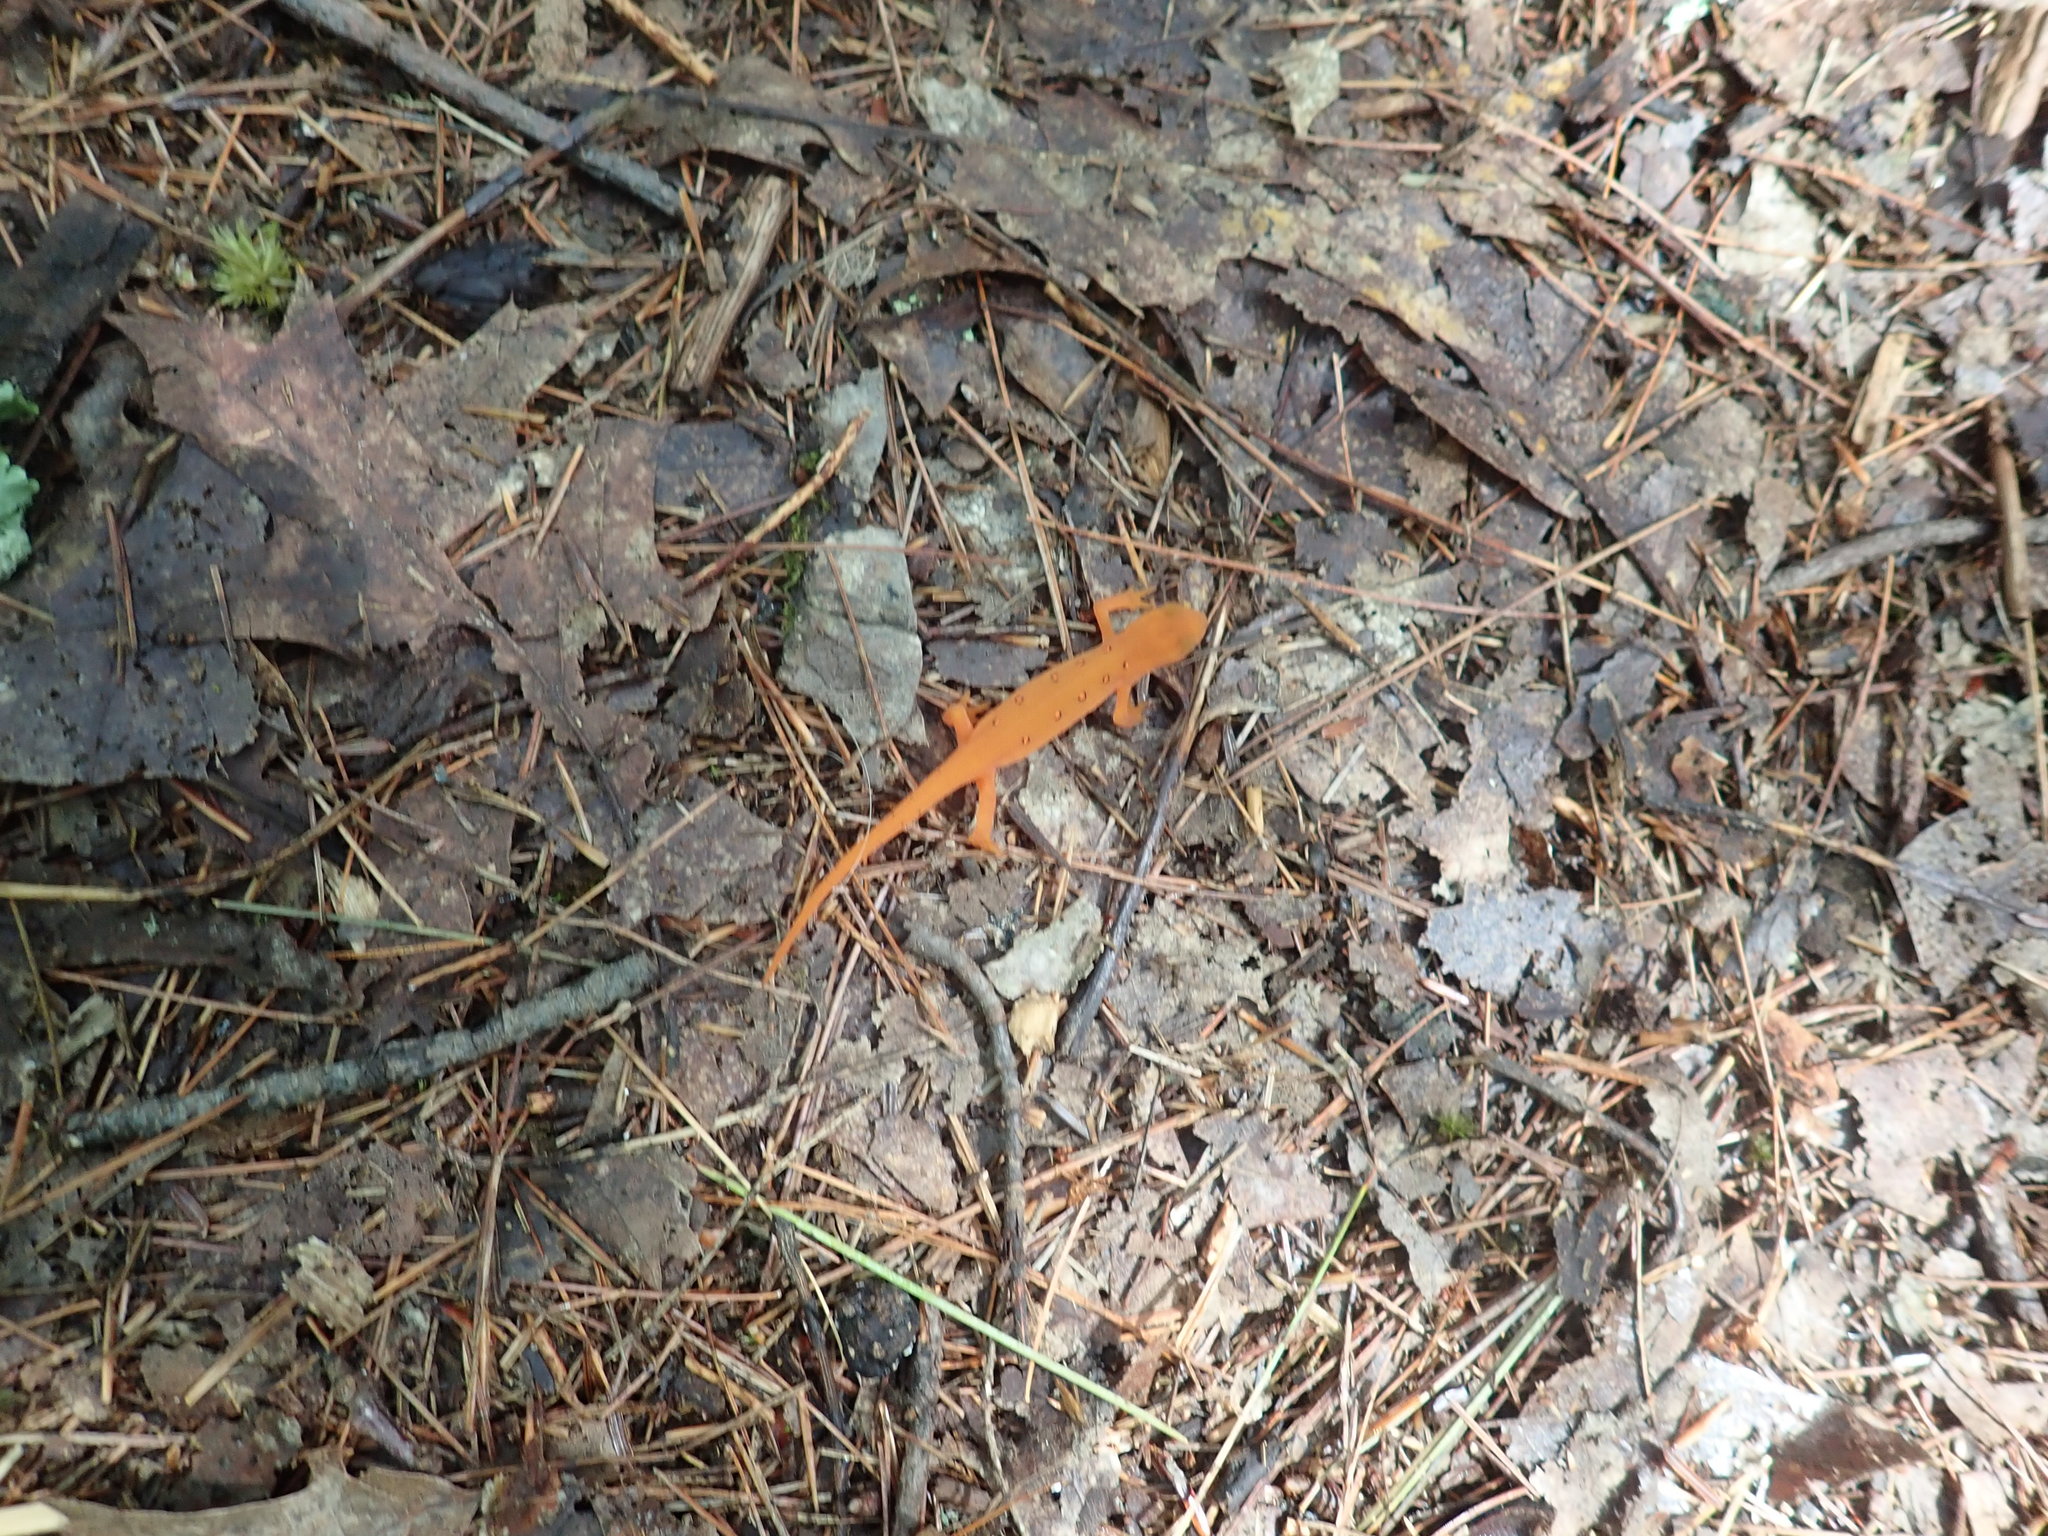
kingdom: Animalia
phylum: Chordata
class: Amphibia
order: Caudata
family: Salamandridae
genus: Notophthalmus
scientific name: Notophthalmus viridescens
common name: Eastern newt
